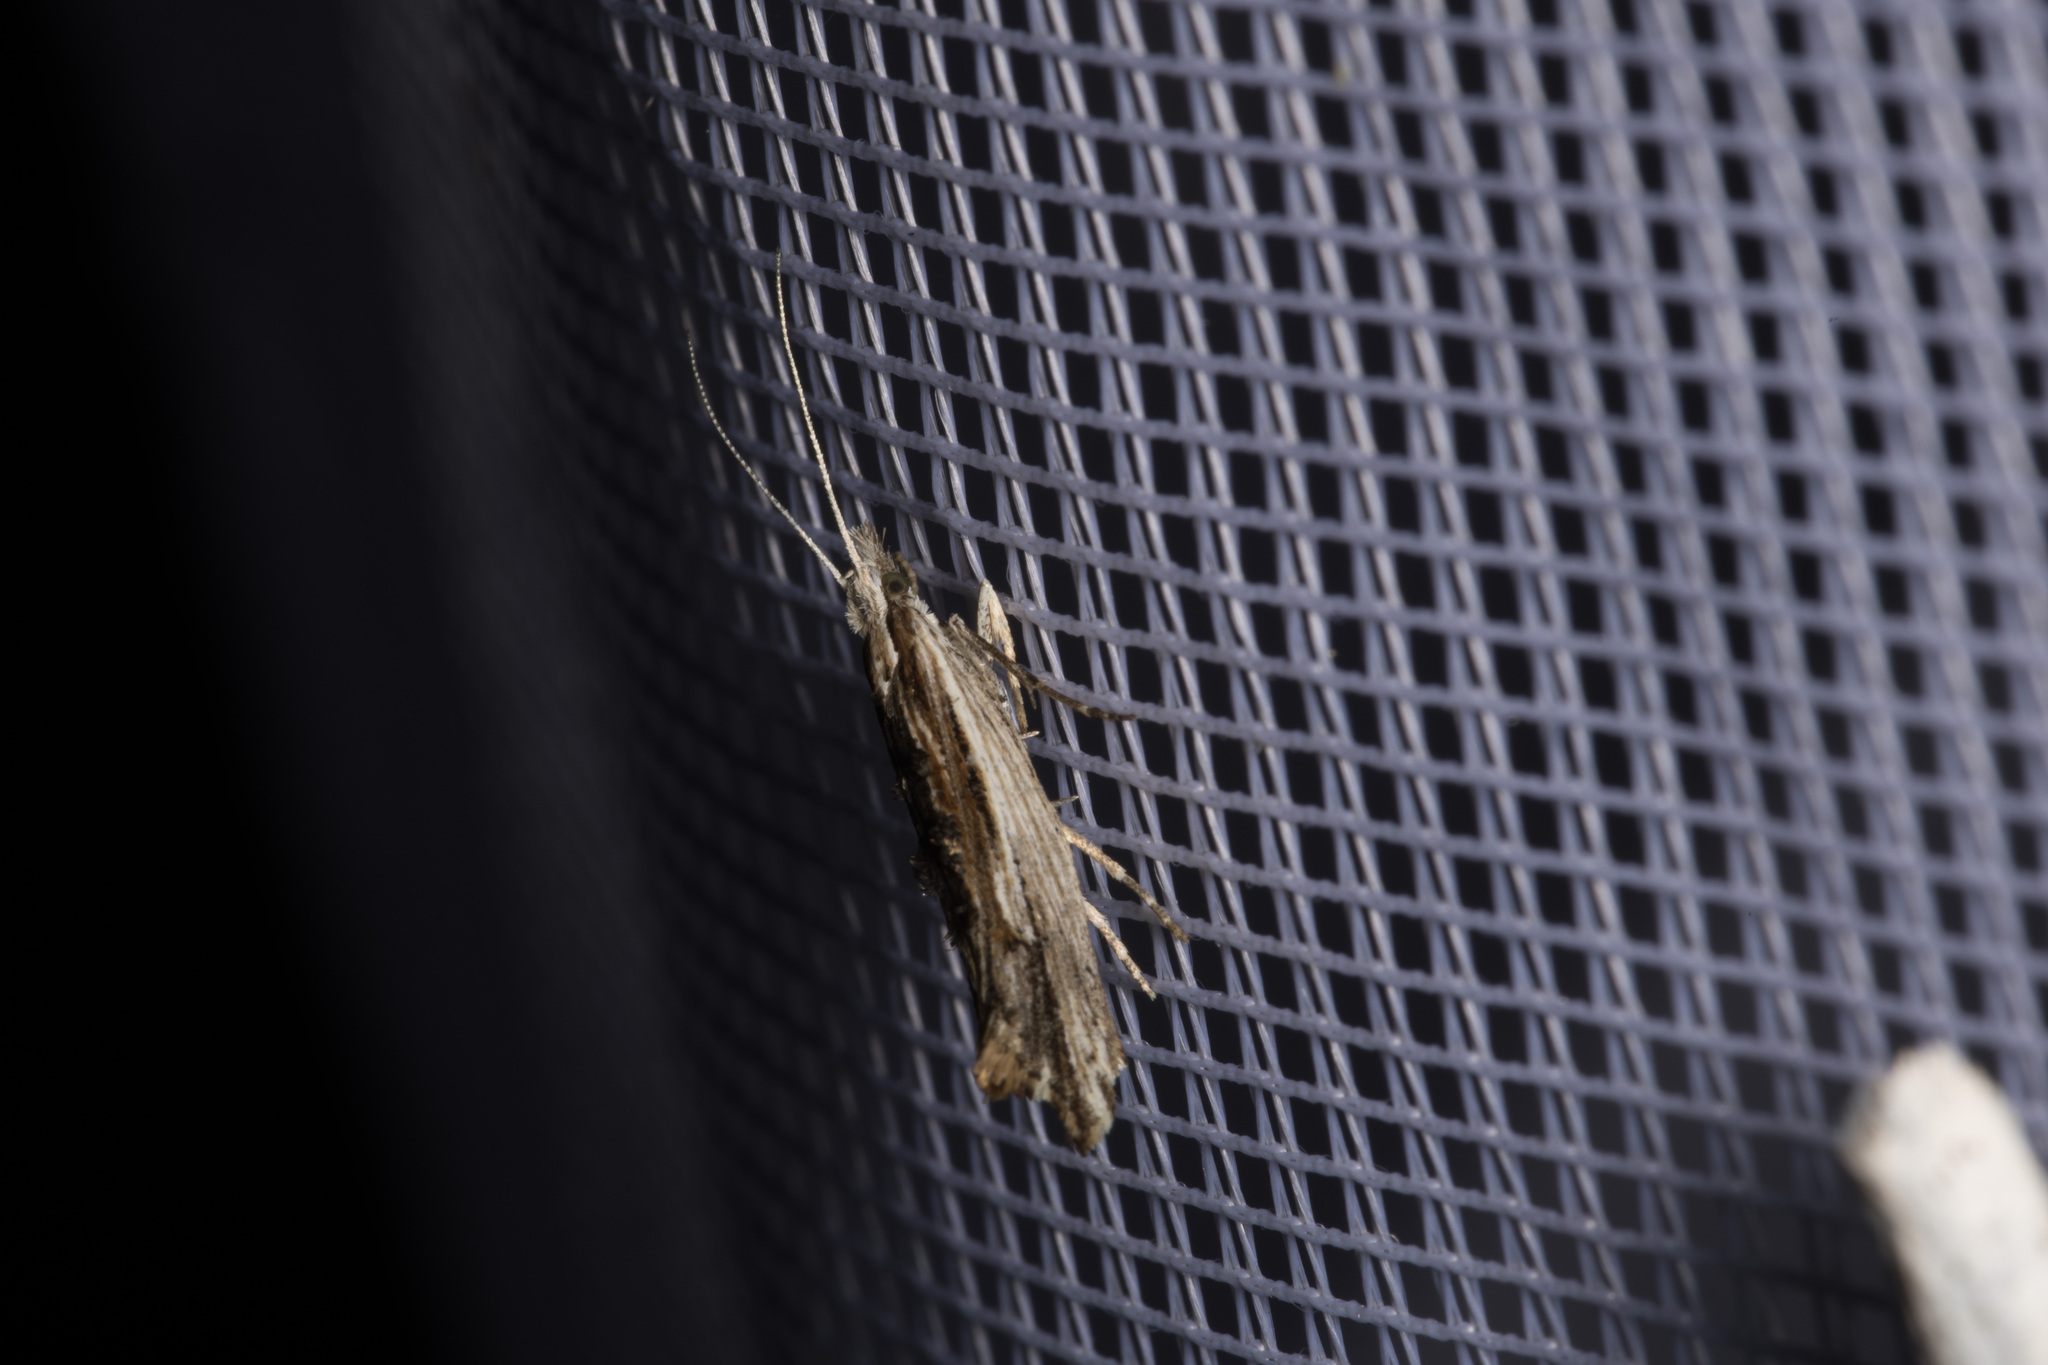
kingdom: Animalia
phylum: Arthropoda
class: Insecta
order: Lepidoptera
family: Ypsolophidae
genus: Ypsolopha
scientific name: Ypsolopha scabrella
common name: Wainscot smudge
